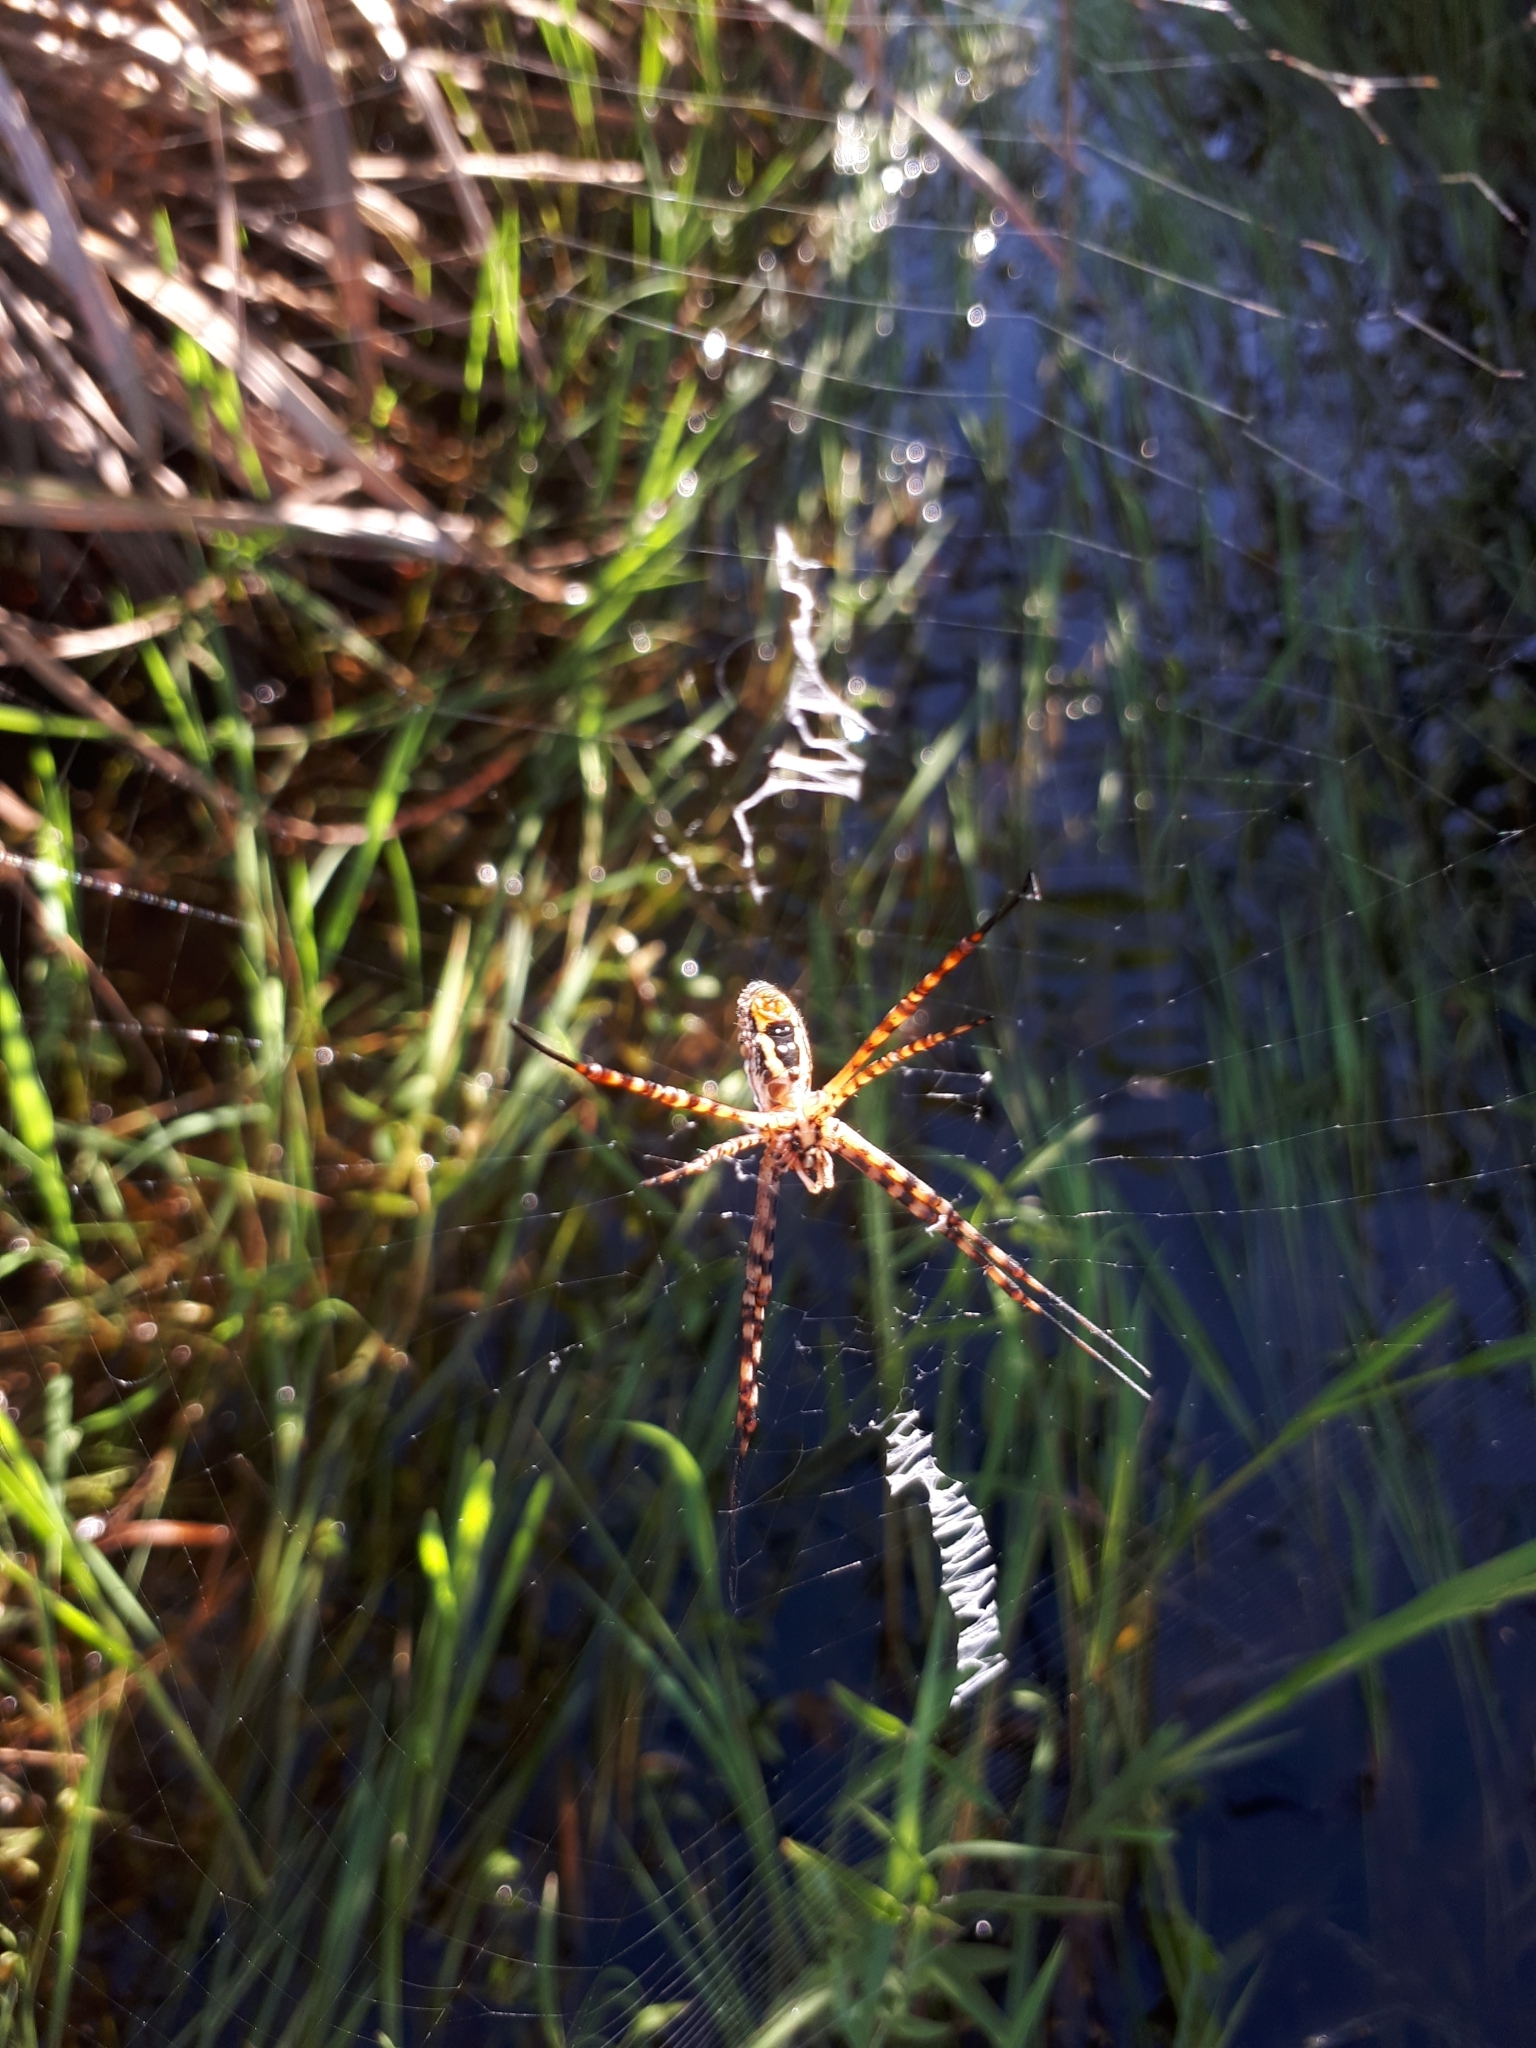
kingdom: Animalia
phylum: Arthropoda
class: Arachnida
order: Araneae
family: Araneidae
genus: Argiope
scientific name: Argiope trifasciata
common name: Banded garden spider
